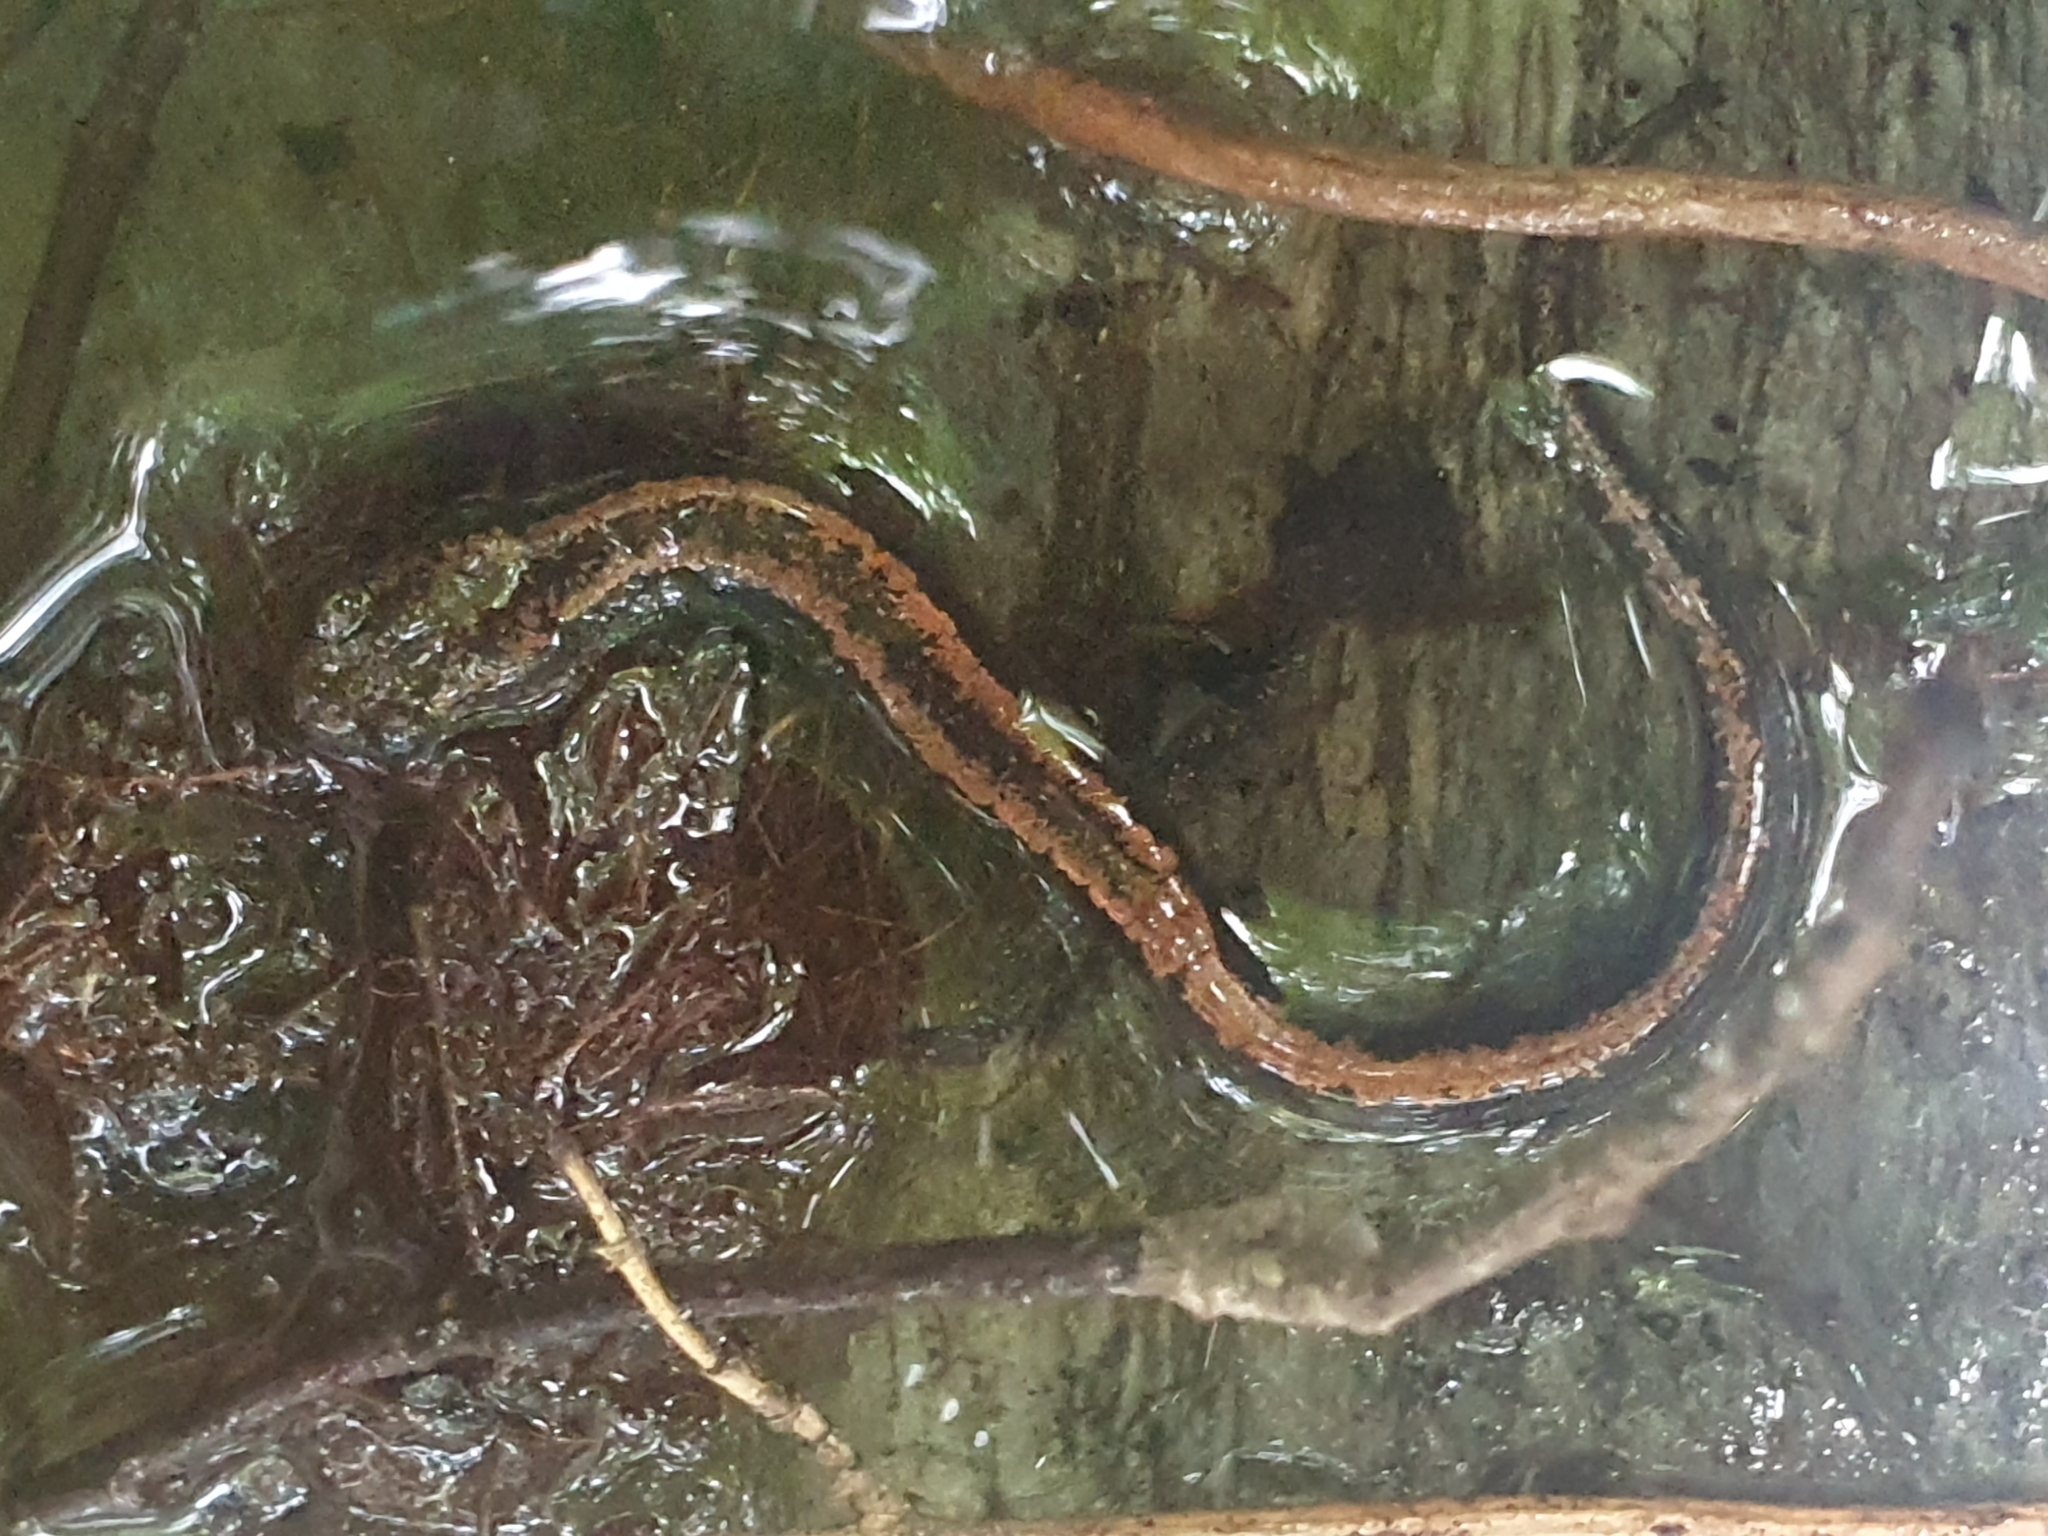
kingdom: Animalia
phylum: Chordata
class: Amphibia
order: Caudata
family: Salamandridae
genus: Chioglossa
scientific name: Chioglossa lusitanica
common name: Gold-striped salamander
